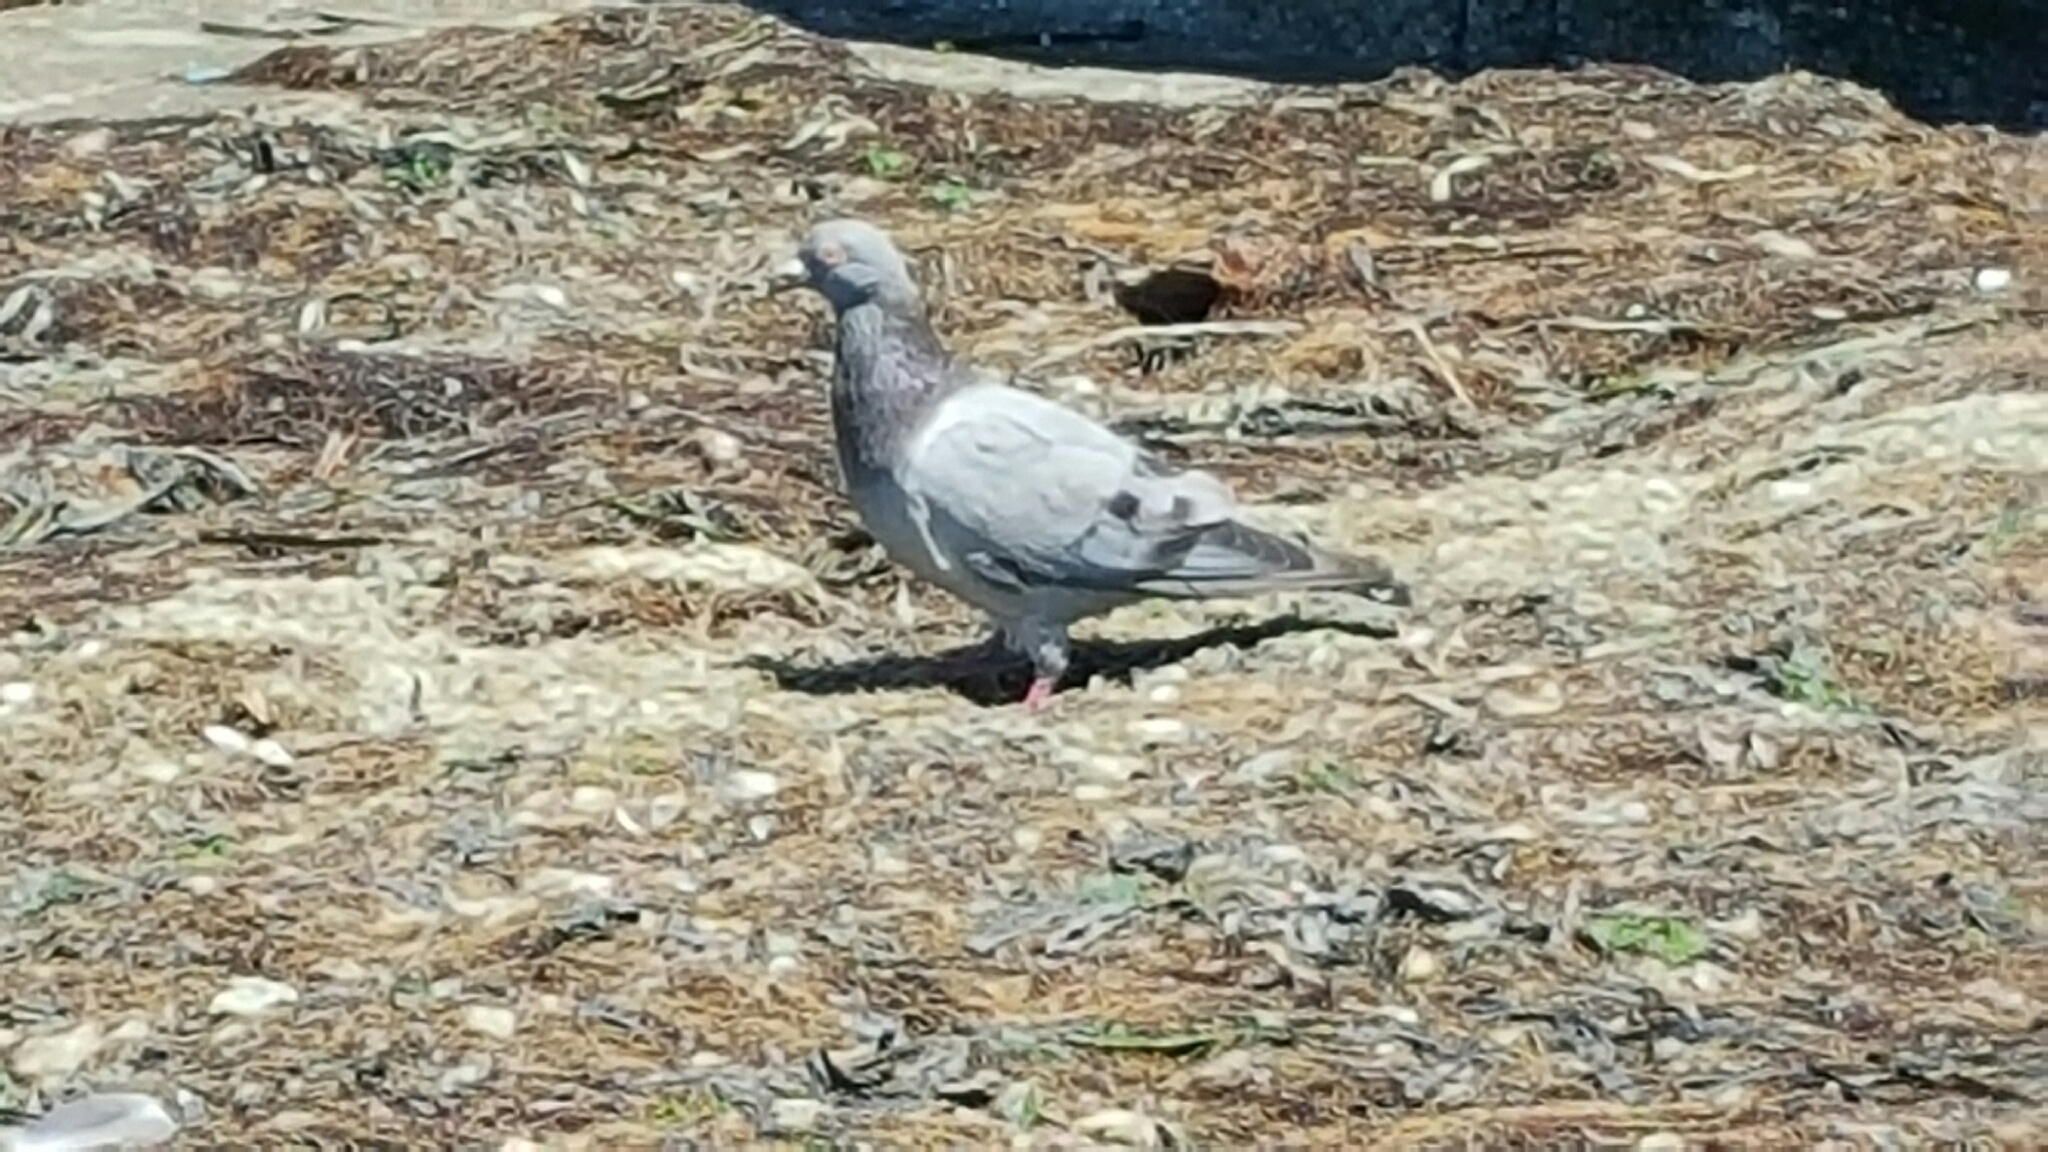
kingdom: Animalia
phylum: Chordata
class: Aves
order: Columbiformes
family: Columbidae
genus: Columba
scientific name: Columba livia
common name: Rock pigeon
